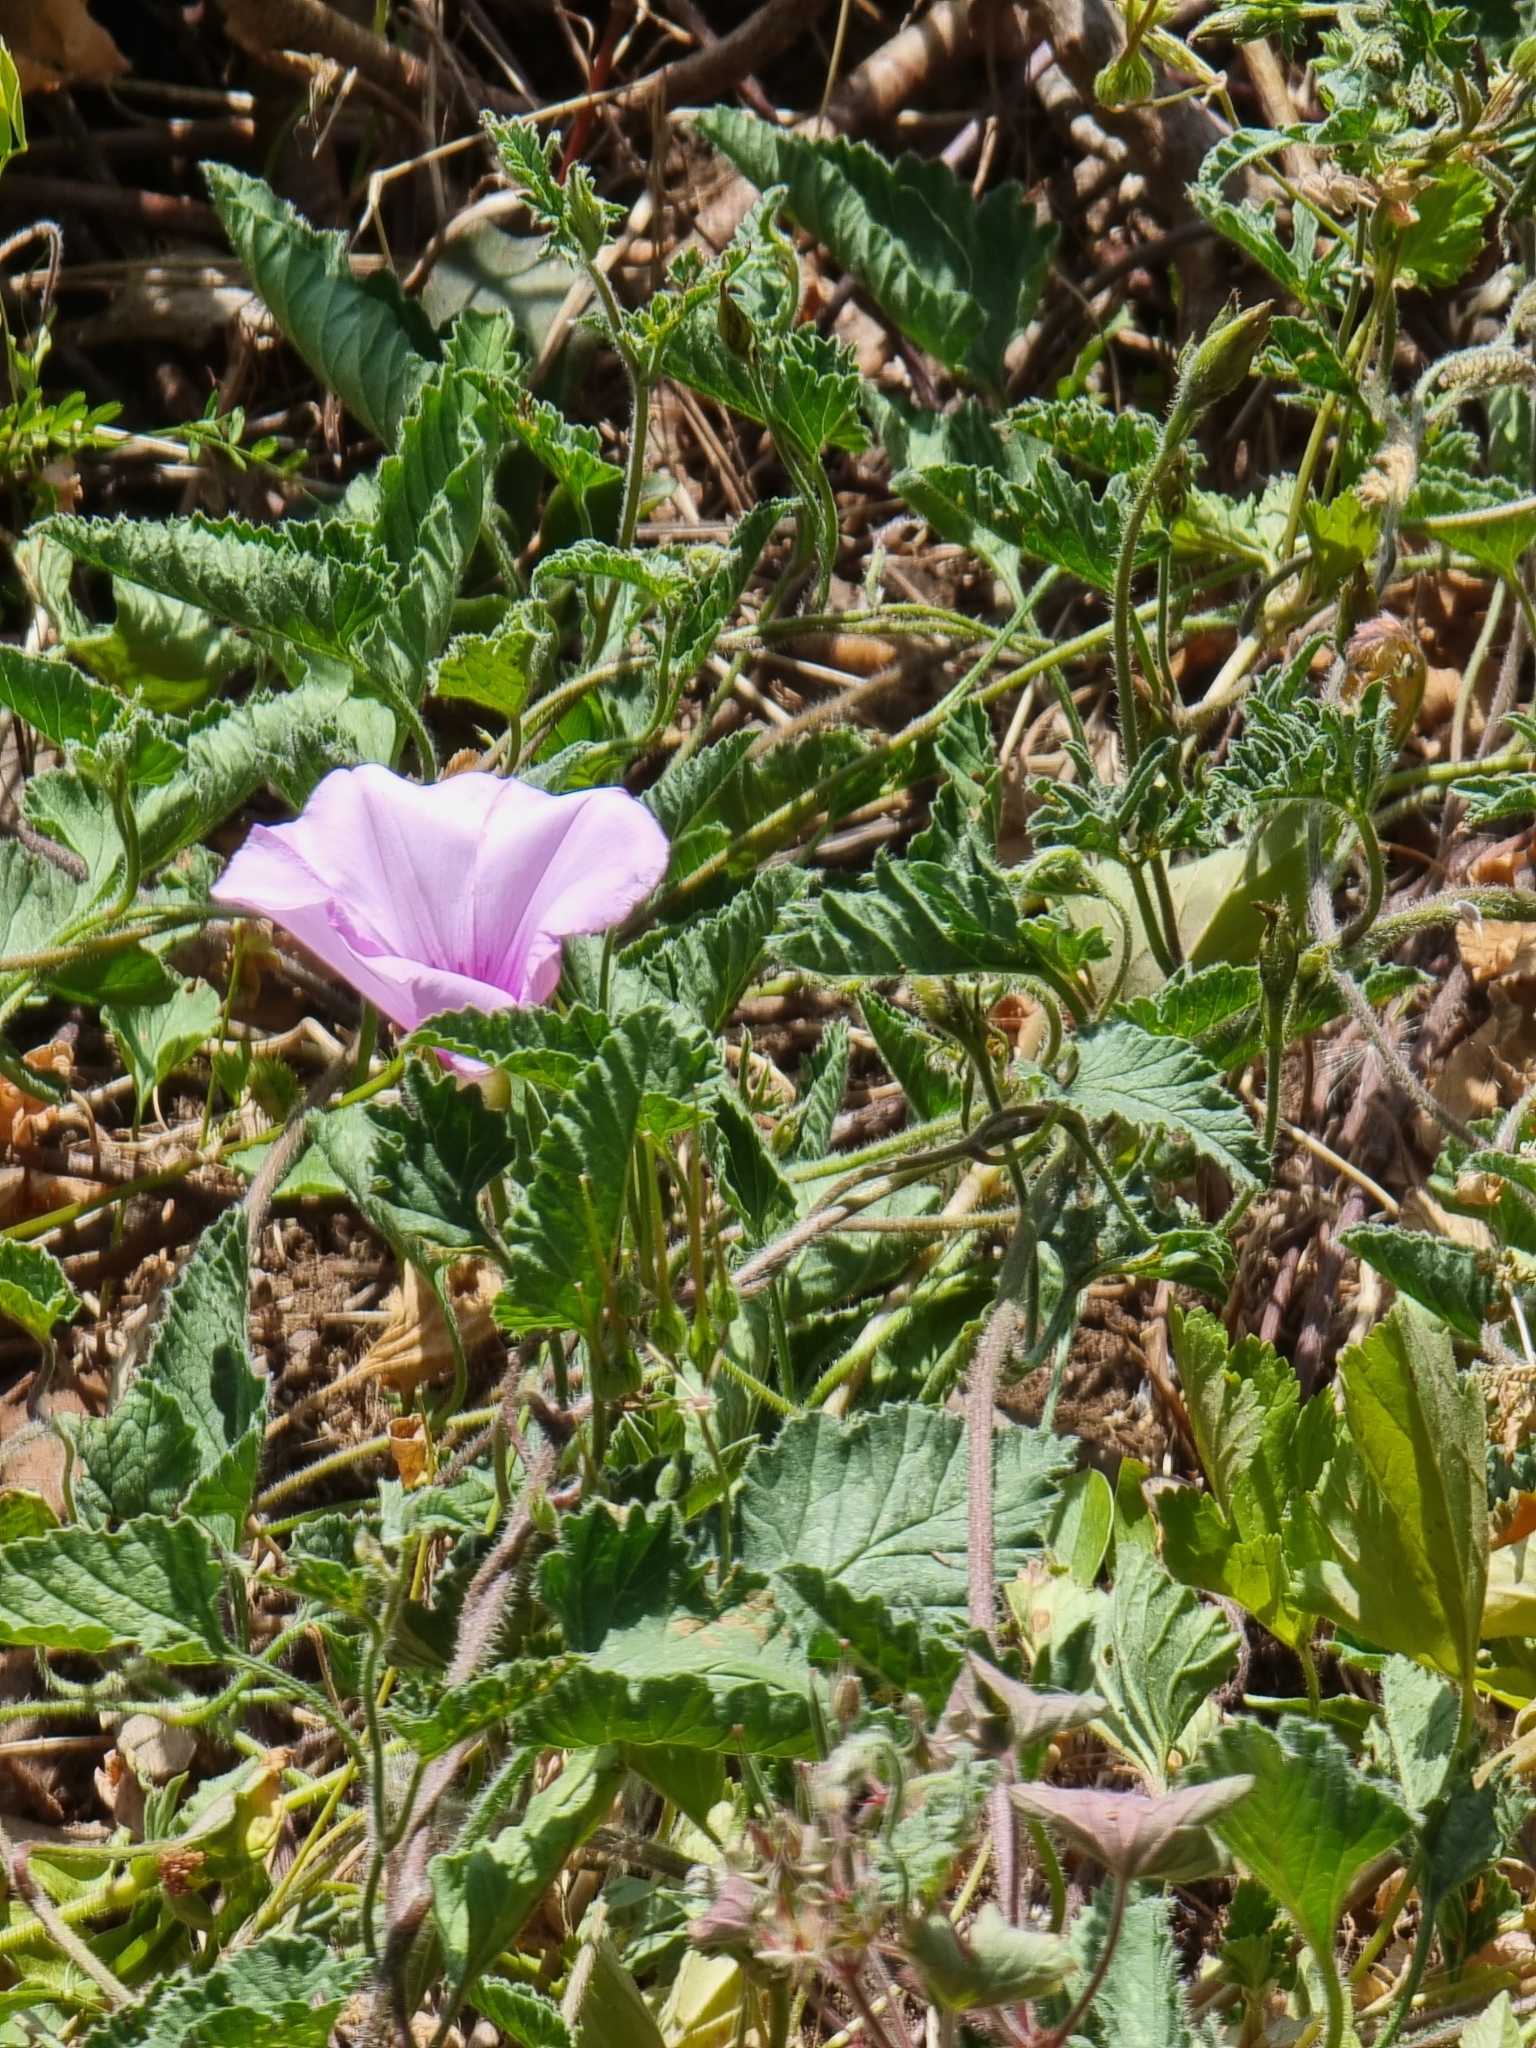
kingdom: Plantae
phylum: Tracheophyta
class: Magnoliopsida
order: Solanales
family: Convolvulaceae
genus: Convolvulus
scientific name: Convolvulus althaeoides
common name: Mallow bindweed
